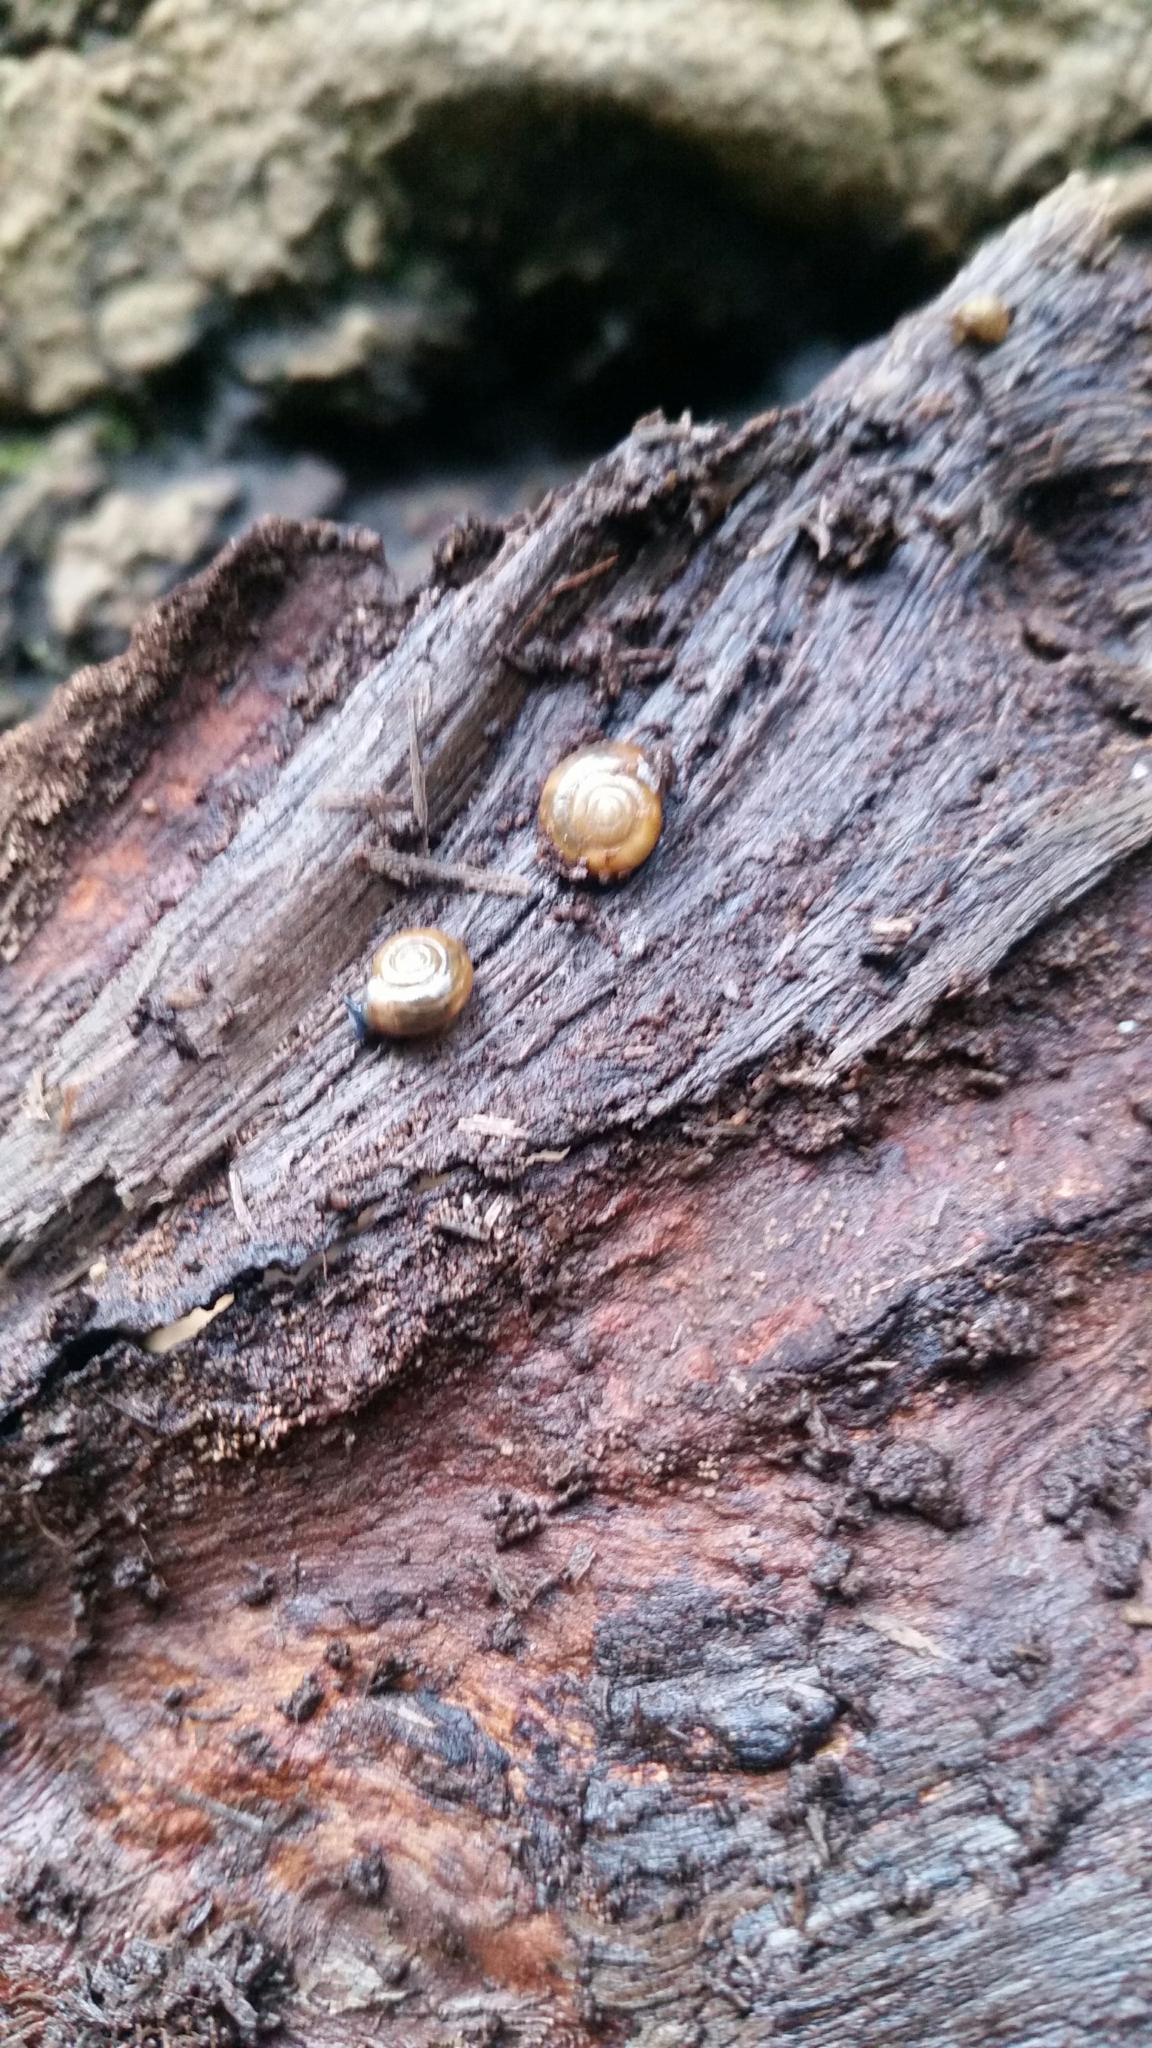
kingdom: Animalia
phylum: Mollusca
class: Gastropoda
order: Stylommatophora
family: Oxychilidae
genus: Oxychilus
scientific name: Oxychilus alliarius
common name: Garlic glass-snail
